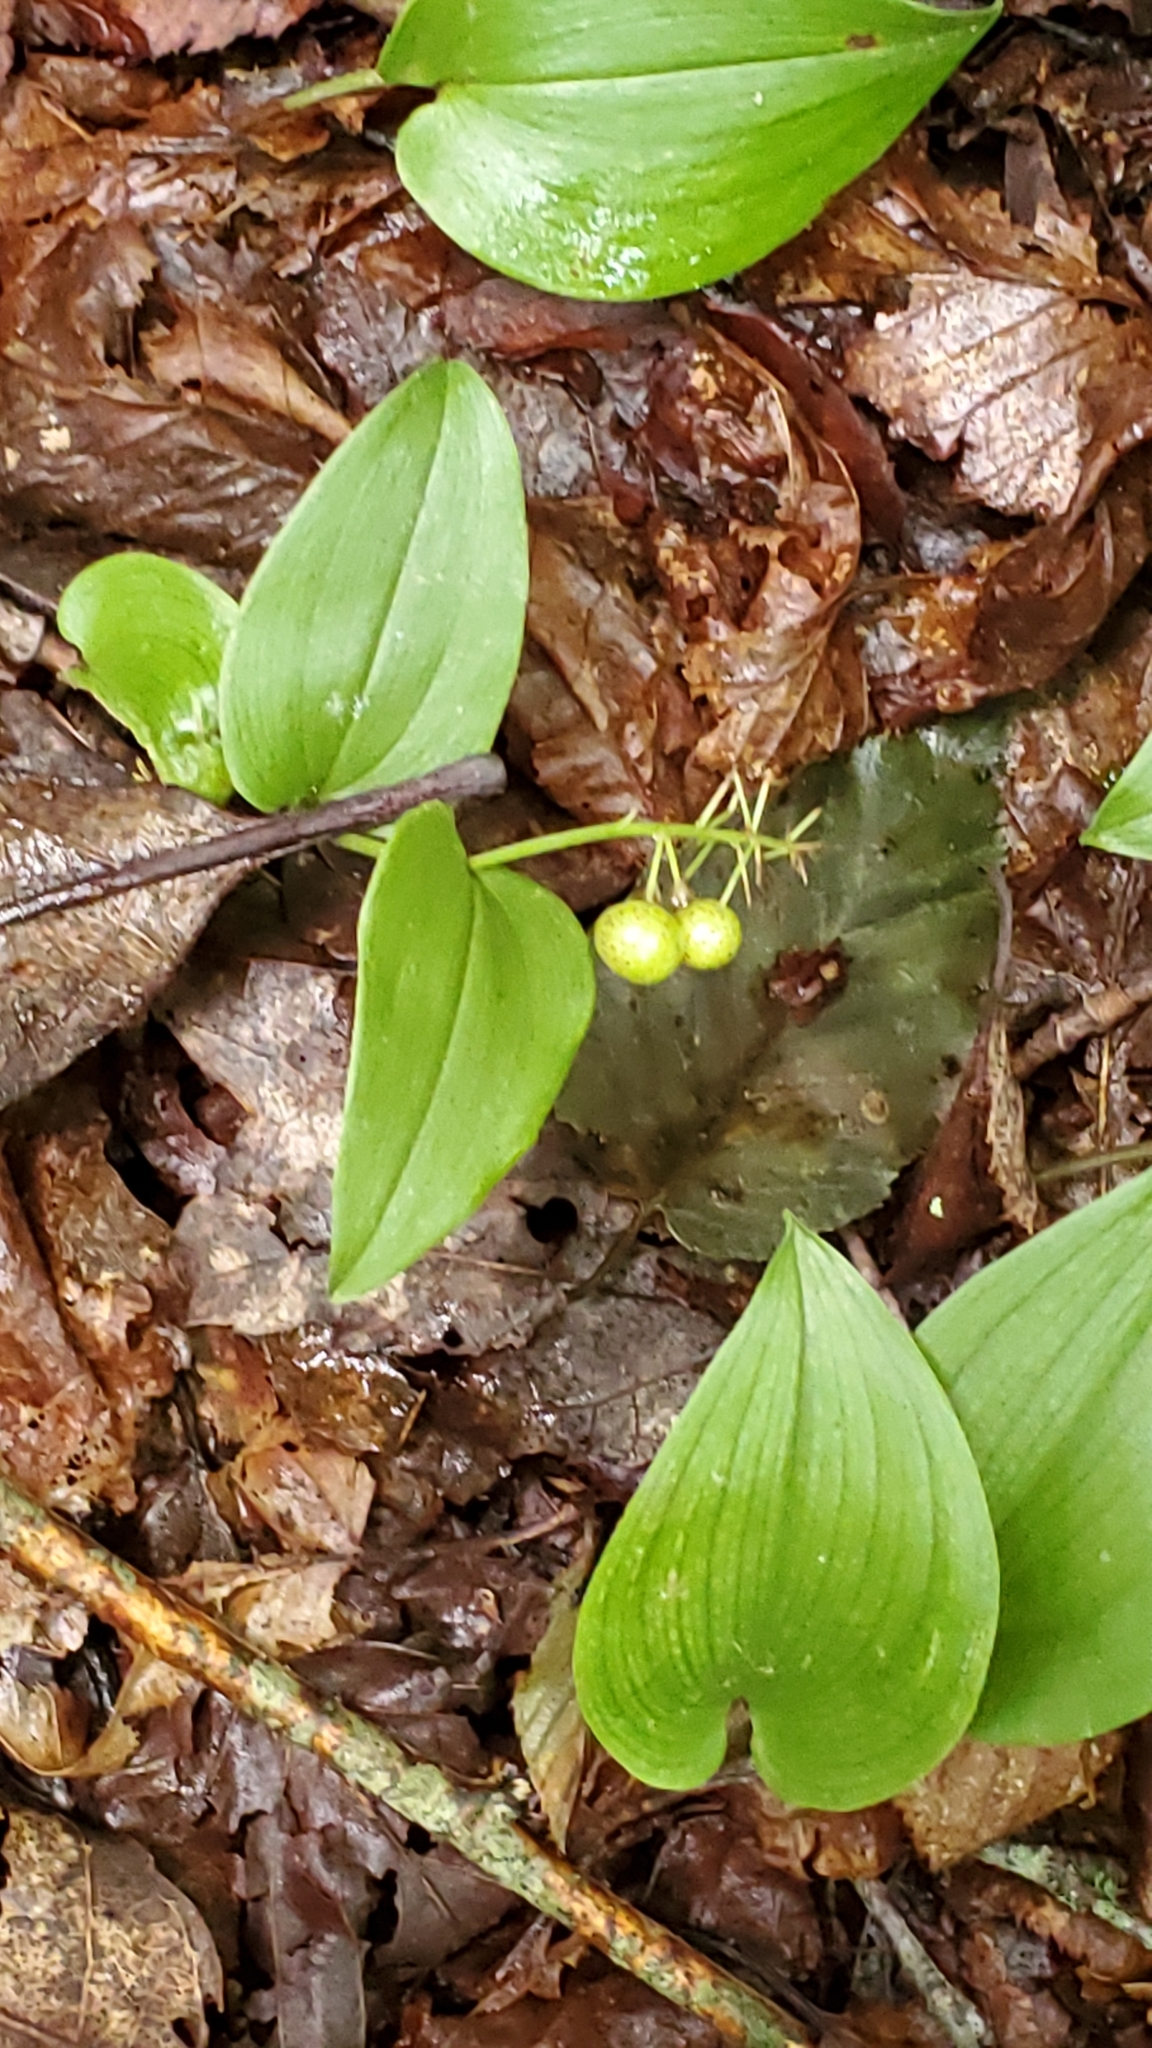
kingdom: Plantae
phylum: Tracheophyta
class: Liliopsida
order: Asparagales
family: Asparagaceae
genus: Maianthemum
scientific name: Maianthemum canadense
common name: False lily-of-the-valley
